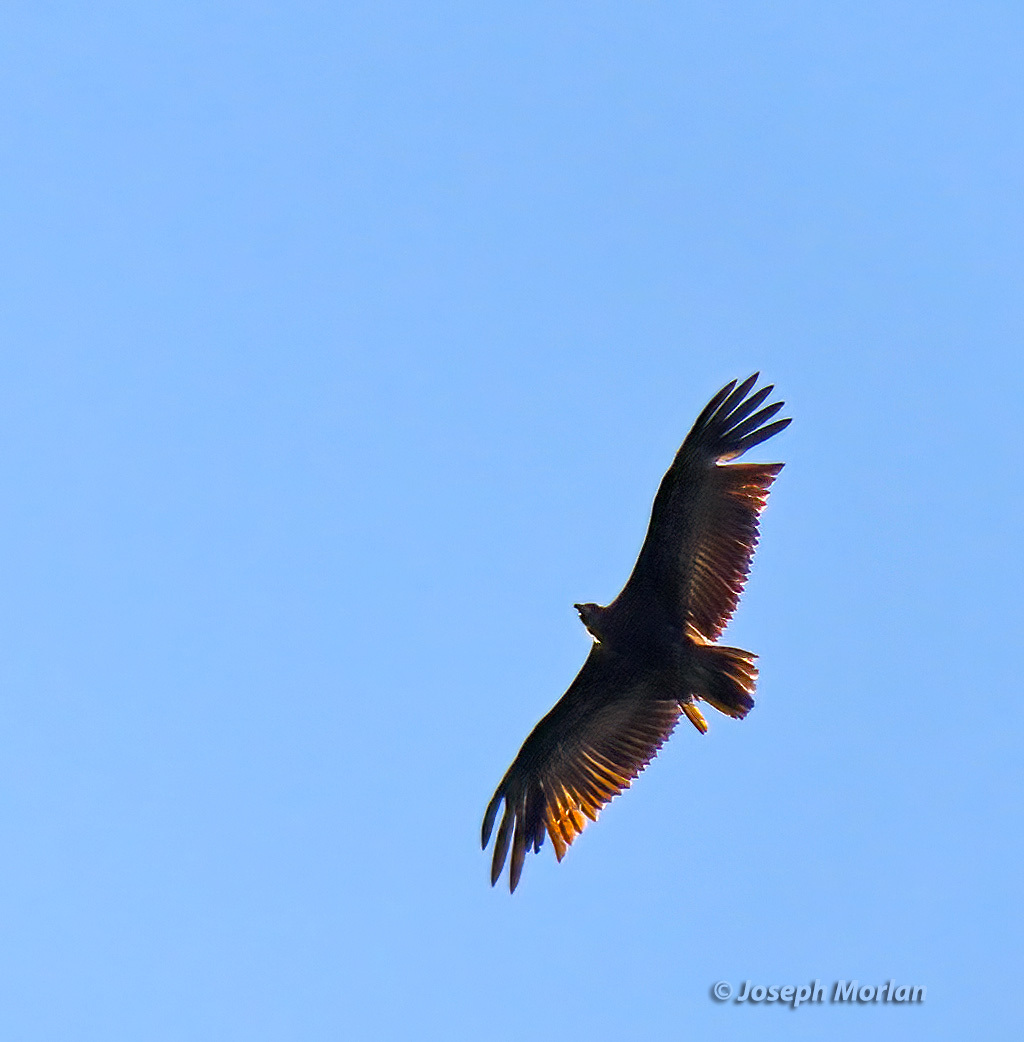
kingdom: Animalia
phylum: Chordata
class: Aves
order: Accipitriformes
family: Accipitridae
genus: Necrosyrtes
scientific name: Necrosyrtes monachus
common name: Hooded vulture
